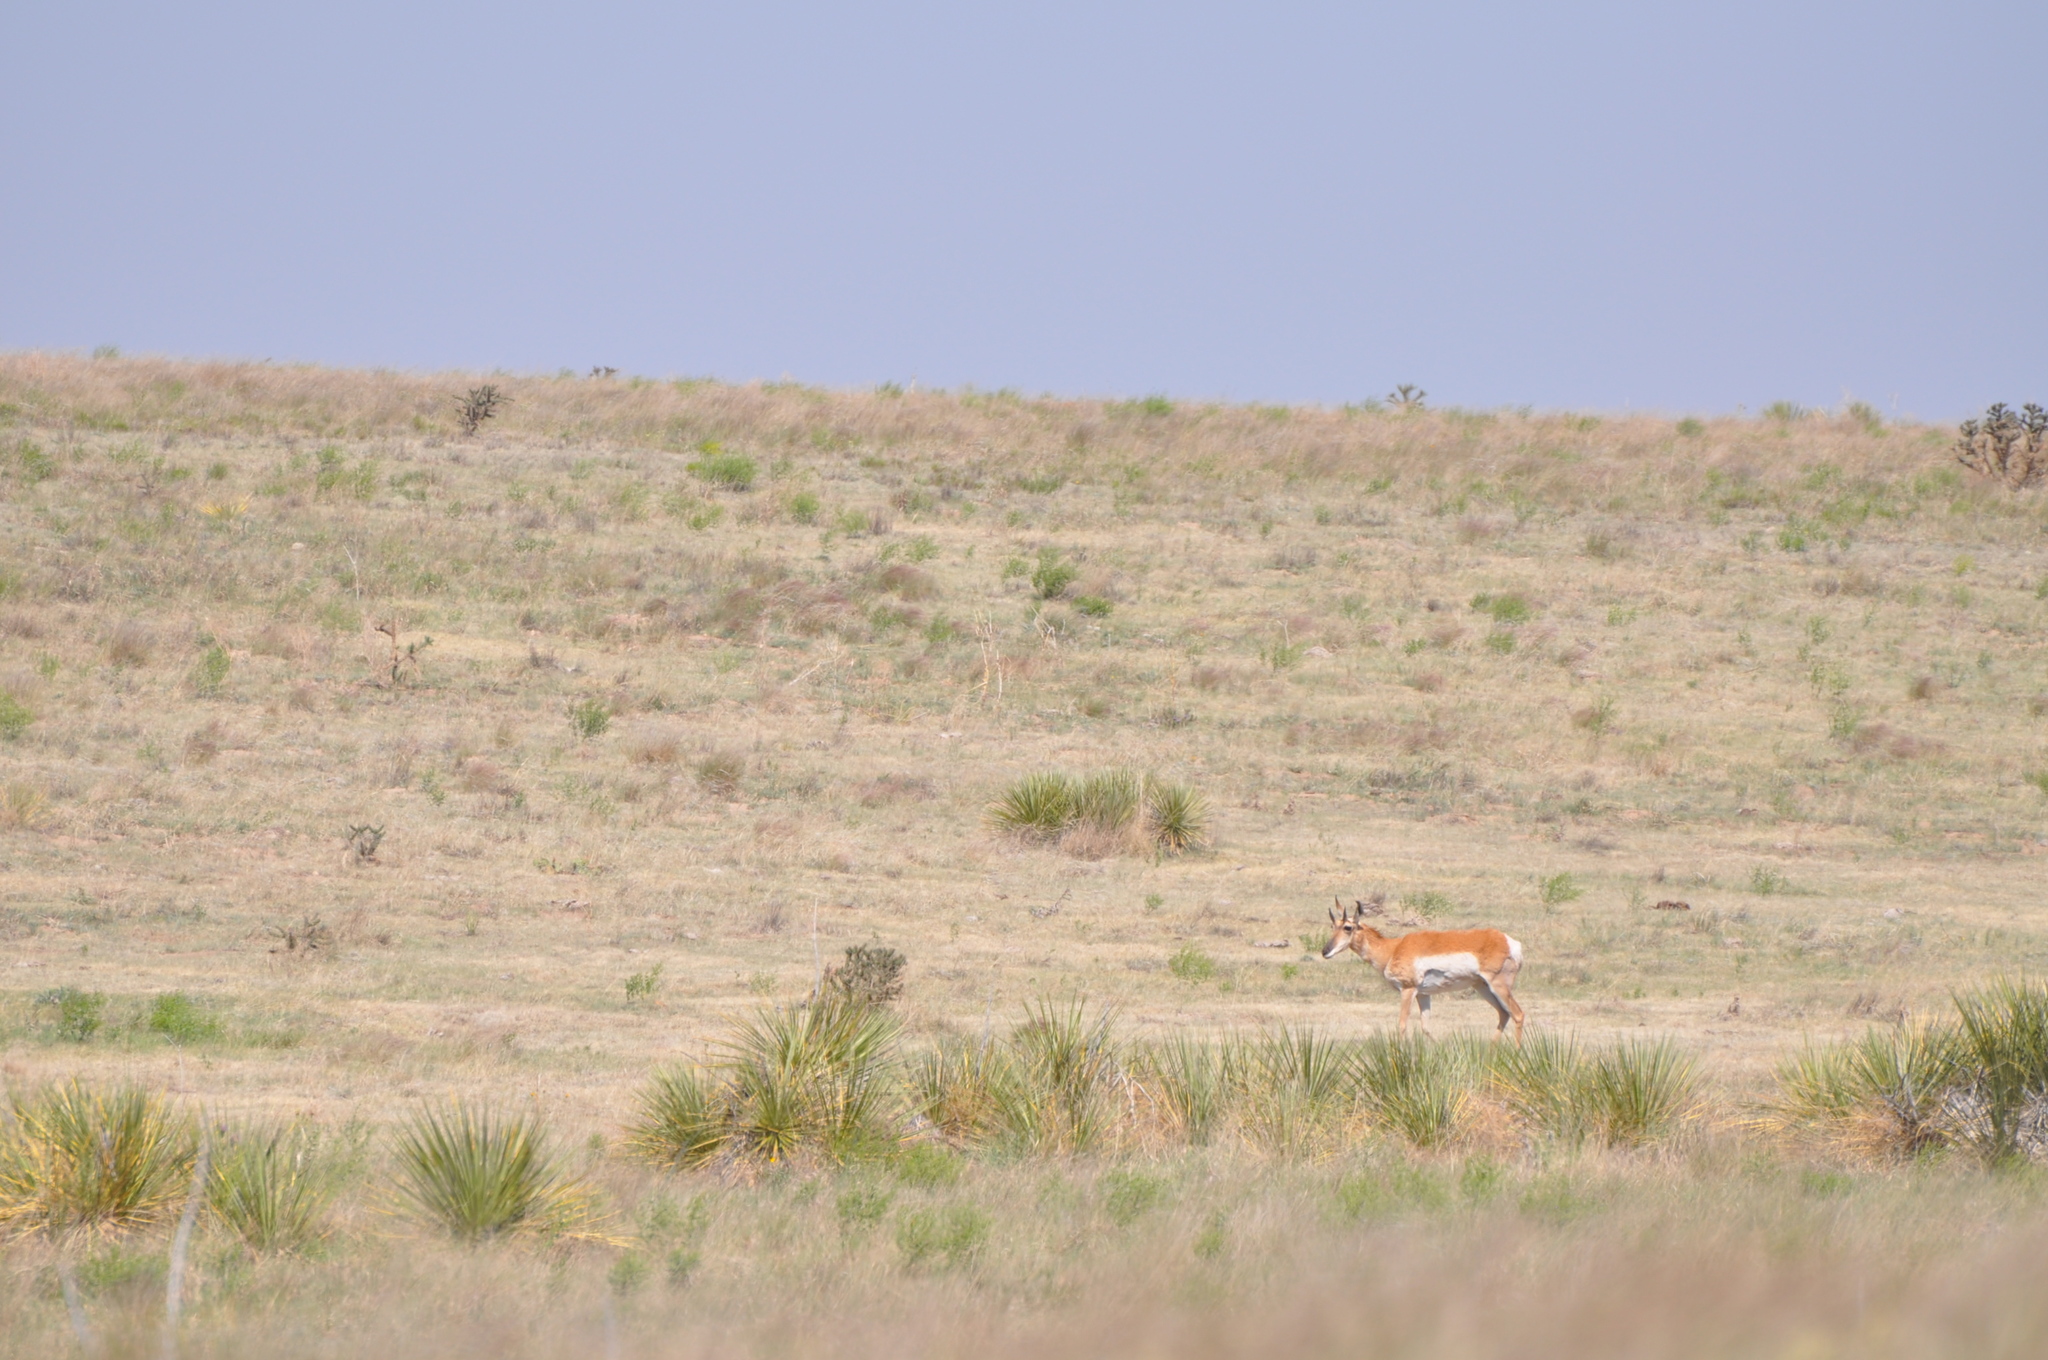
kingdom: Animalia
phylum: Chordata
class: Mammalia
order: Artiodactyla
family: Antilocapridae
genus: Antilocapra
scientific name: Antilocapra americana
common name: Pronghorn
